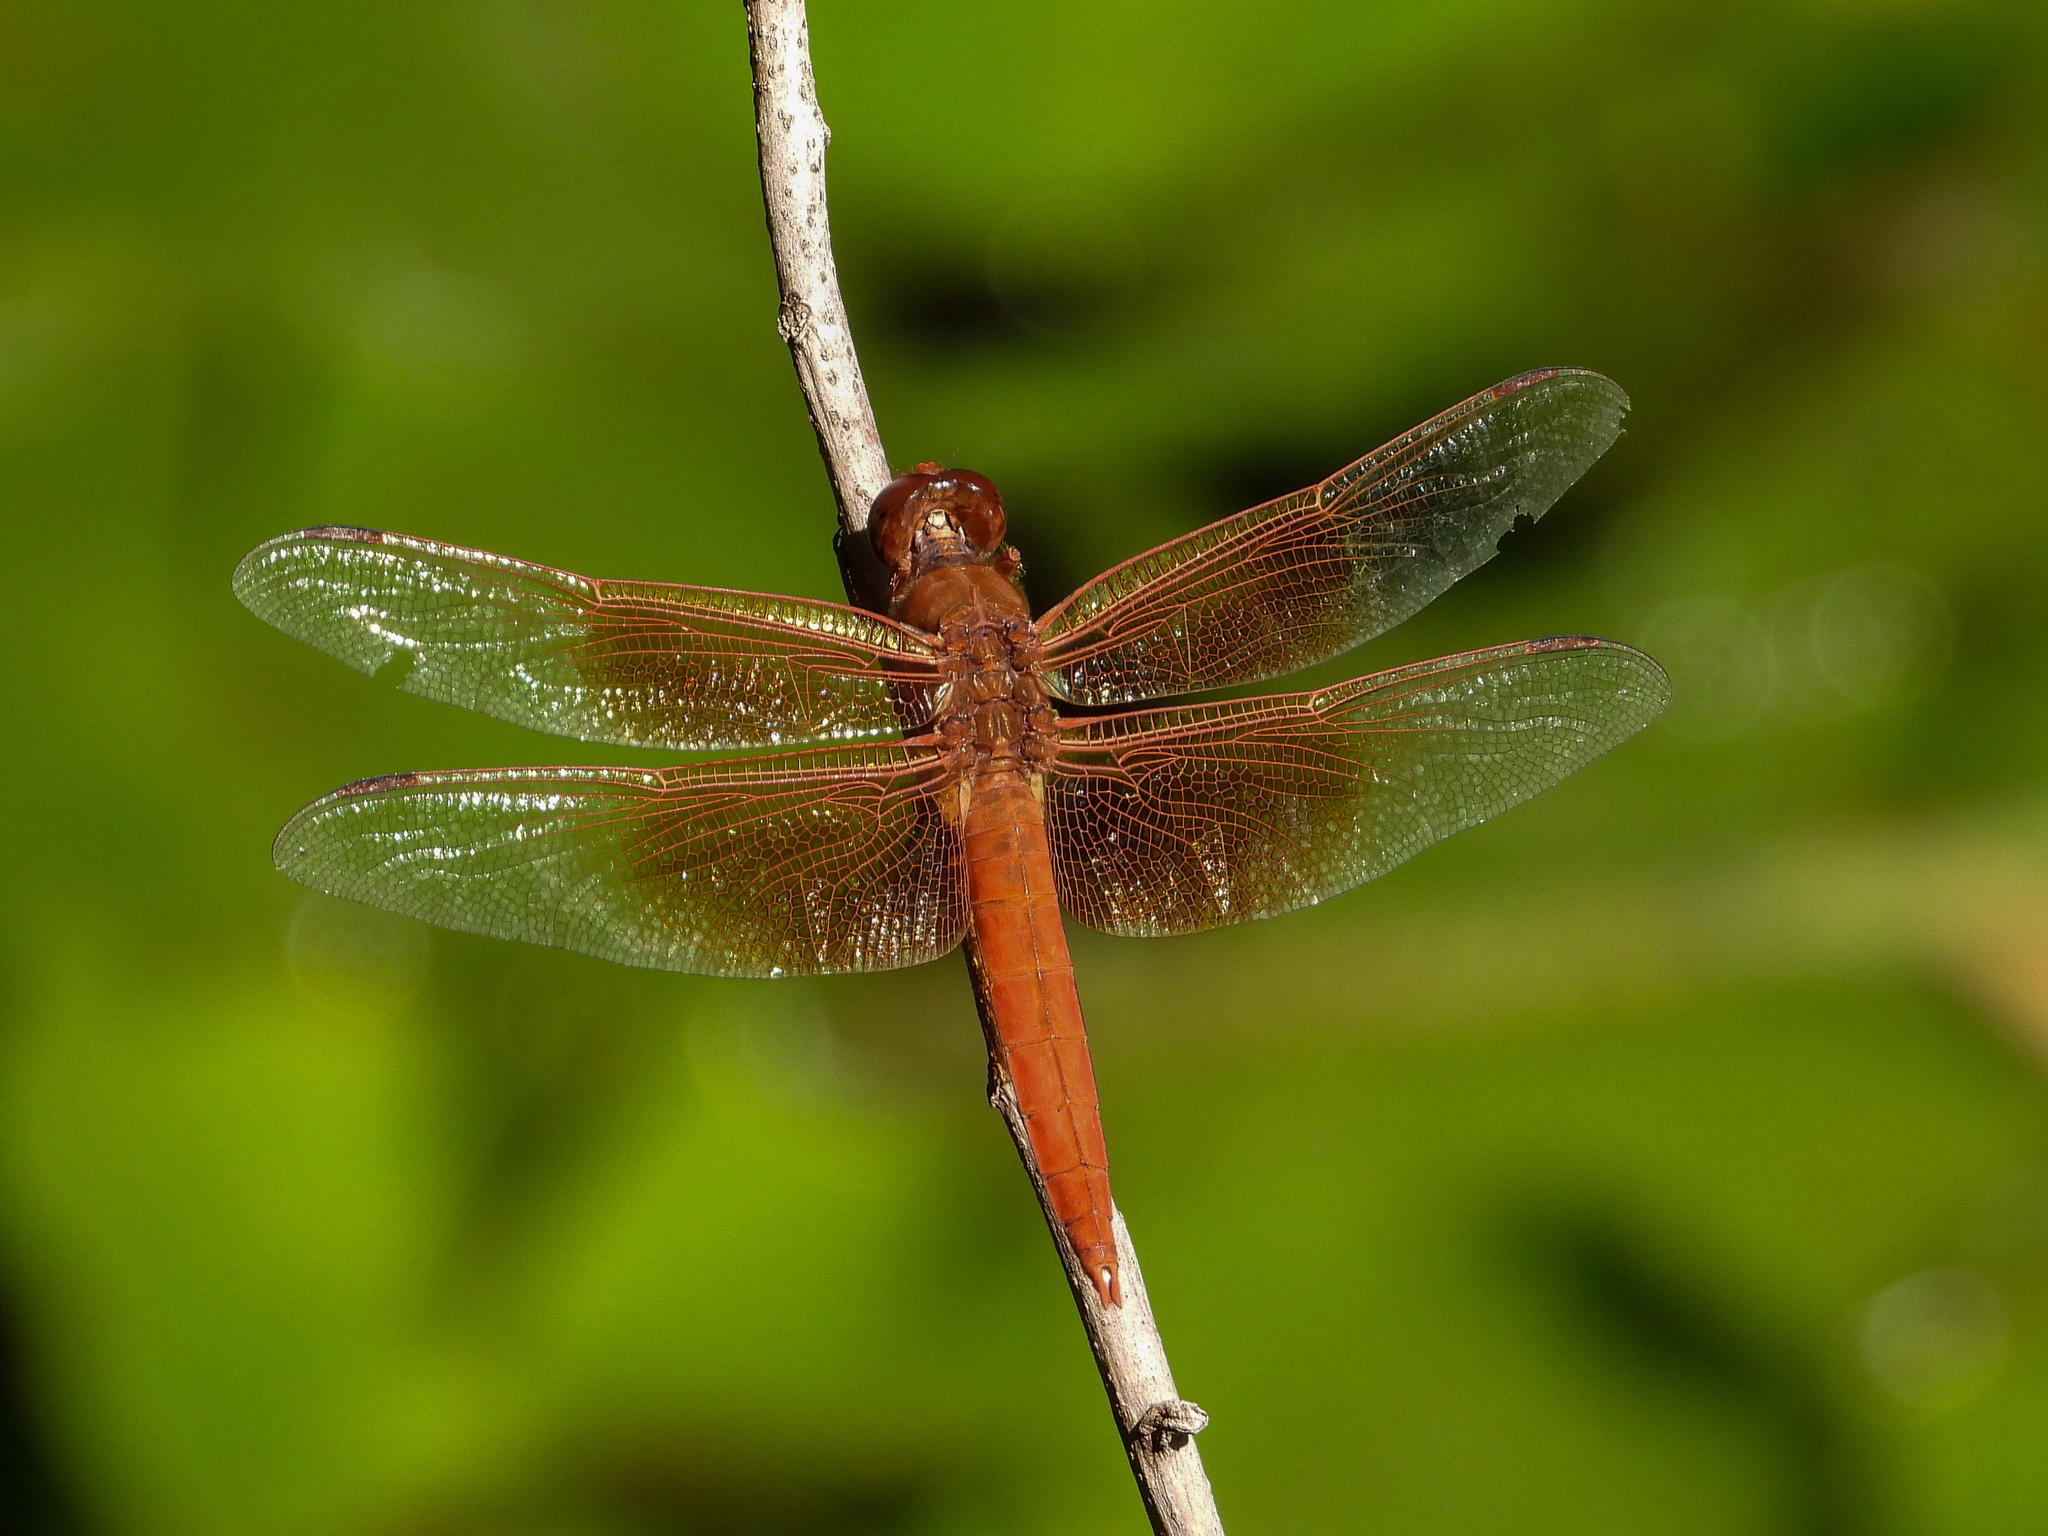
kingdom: Animalia
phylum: Arthropoda
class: Insecta
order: Odonata
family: Libellulidae
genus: Libellula
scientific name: Libellula saturata
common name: Flame skimmer
